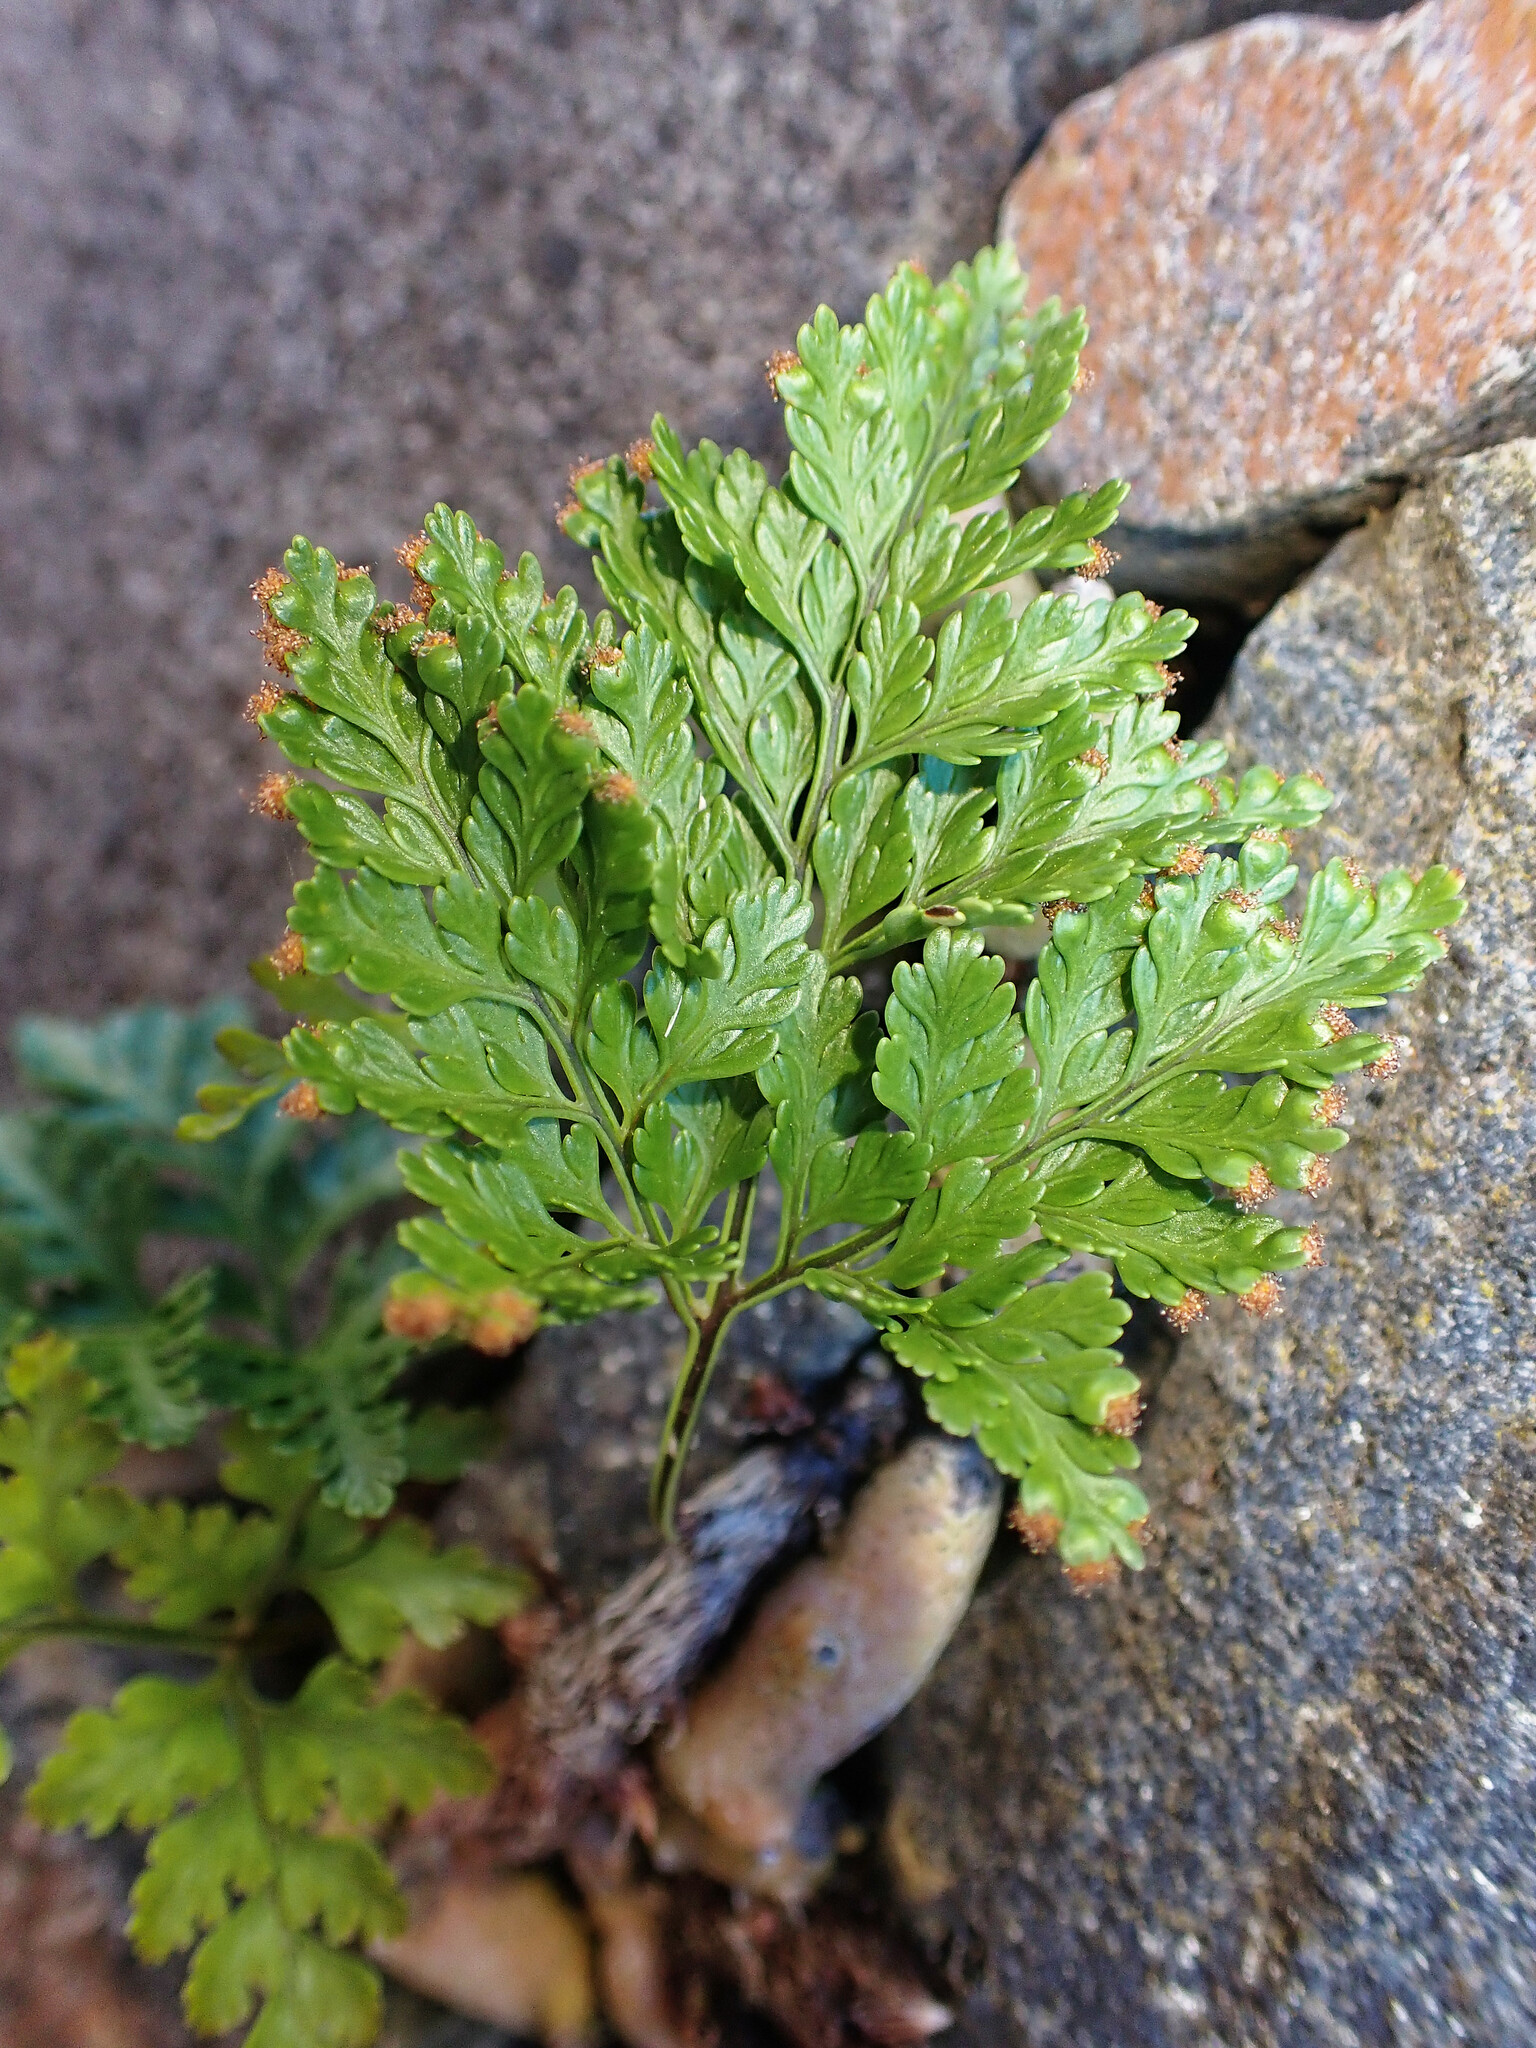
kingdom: Plantae
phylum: Tracheophyta
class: Polypodiopsida
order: Polypodiales
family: Davalliaceae
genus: Davallia
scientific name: Davallia canariensis
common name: Hare's-foot fern
